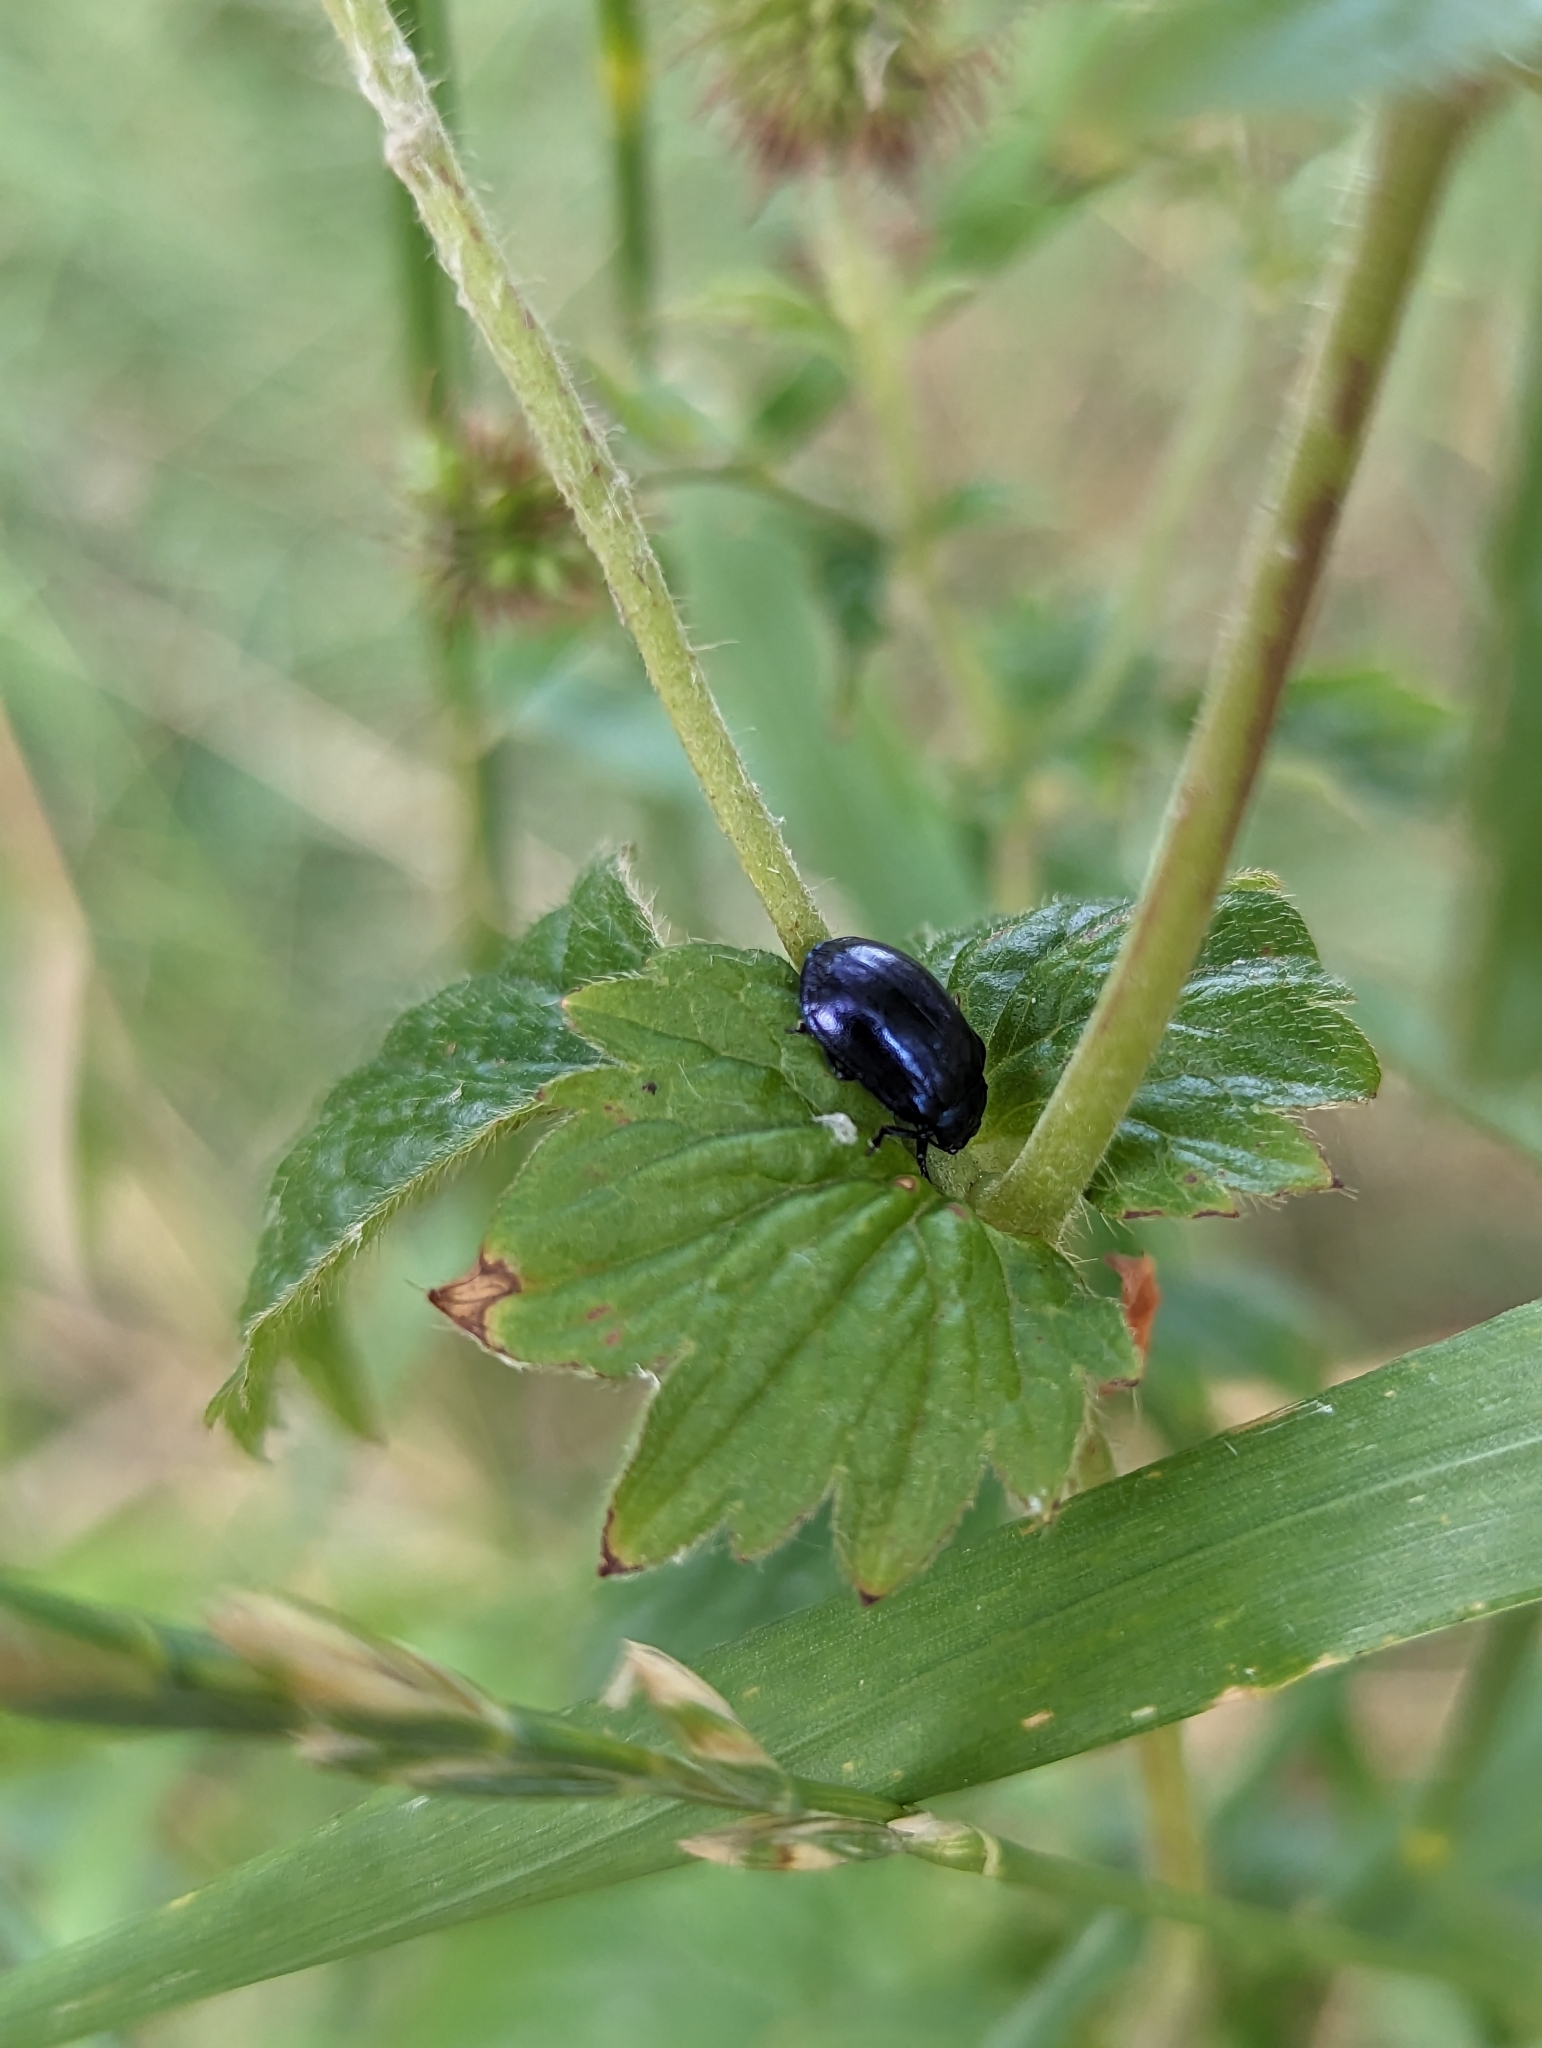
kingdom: Animalia
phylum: Arthropoda
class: Insecta
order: Coleoptera
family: Chrysomelidae
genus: Plagiosterna
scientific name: Plagiosterna aenea
